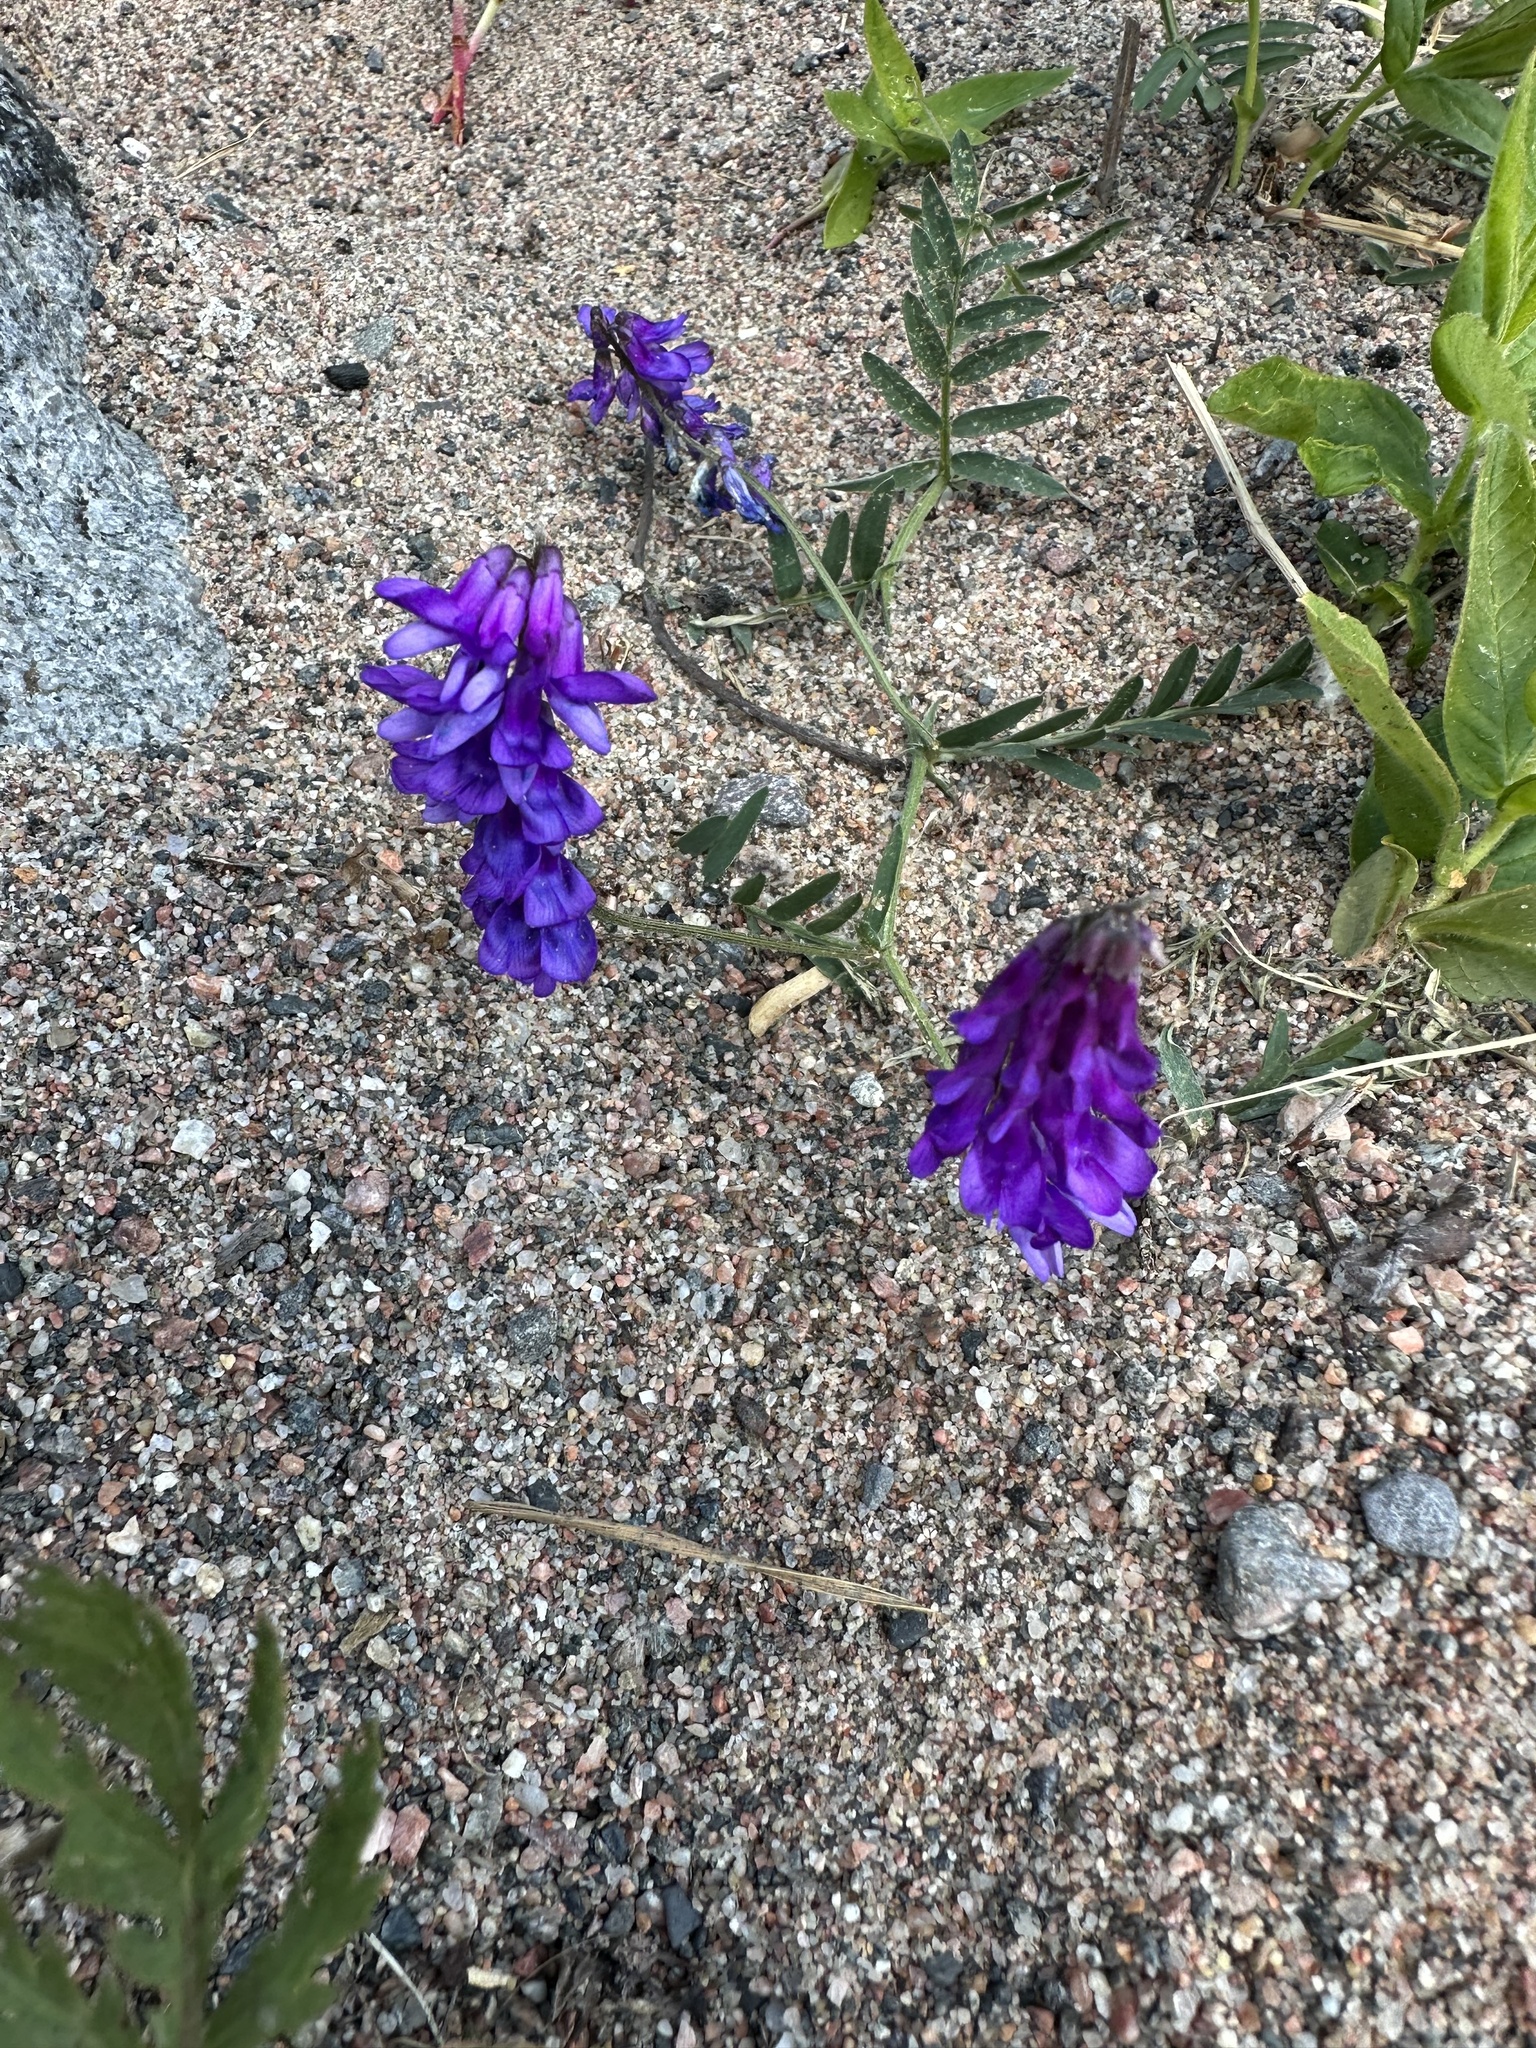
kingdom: Plantae
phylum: Tracheophyta
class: Magnoliopsida
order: Fabales
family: Fabaceae
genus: Vicia
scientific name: Vicia cracca
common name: Bird vetch
